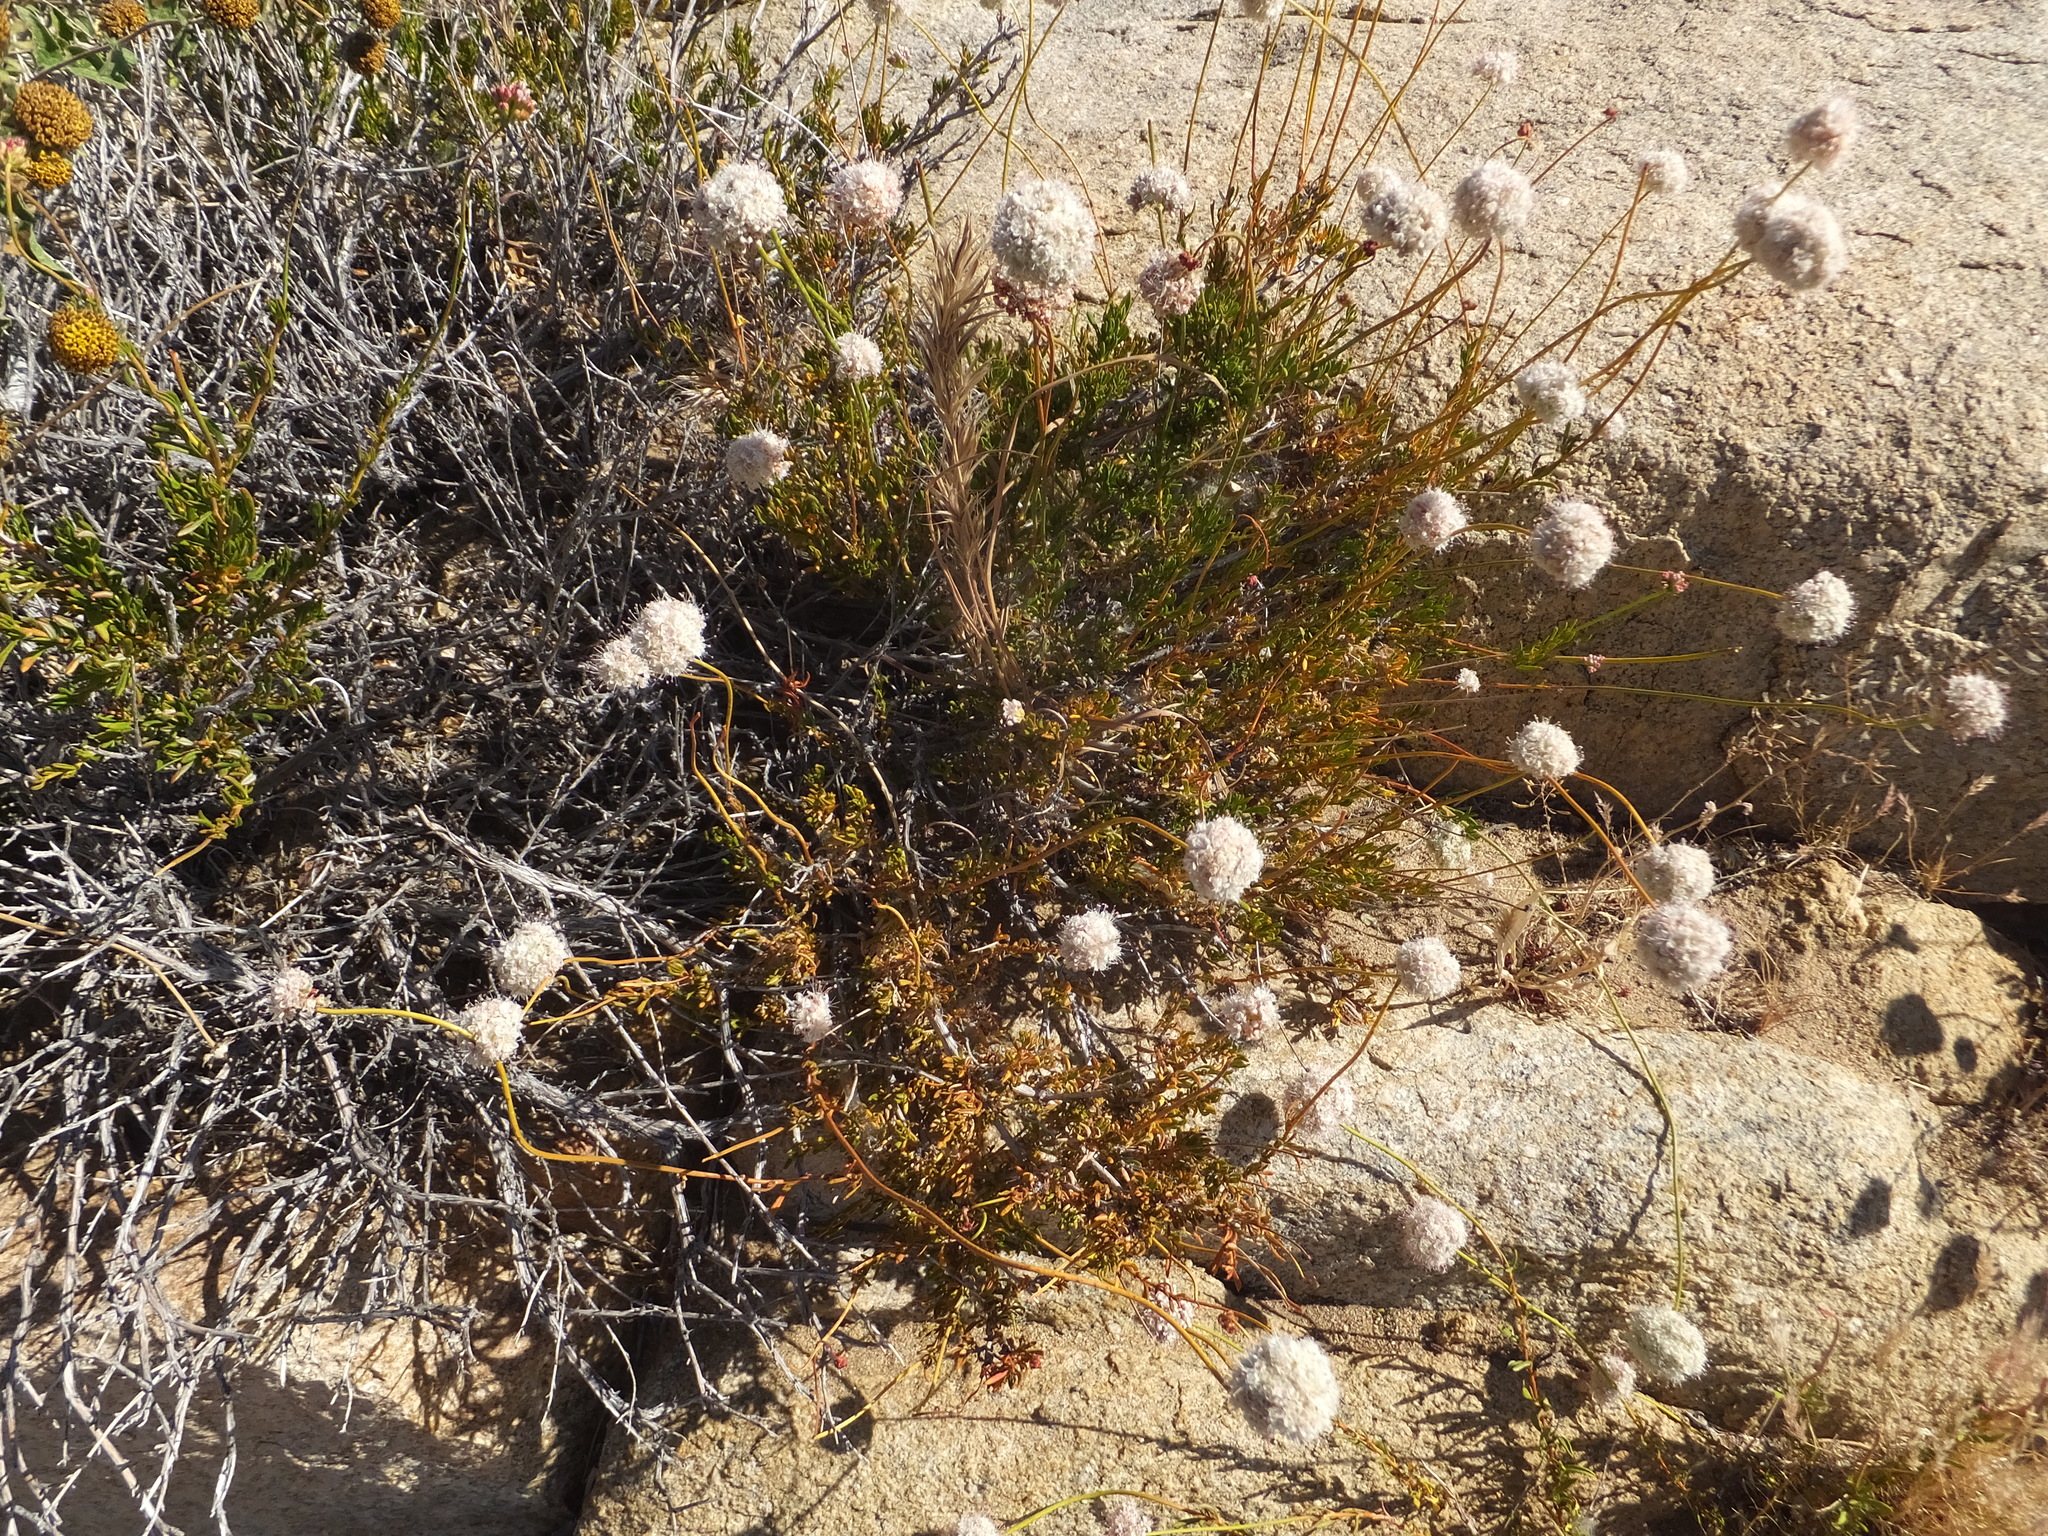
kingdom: Plantae
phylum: Tracheophyta
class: Magnoliopsida
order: Caryophyllales
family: Polygonaceae
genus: Eriogonum
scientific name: Eriogonum fasciculatum
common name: California wild buckwheat
